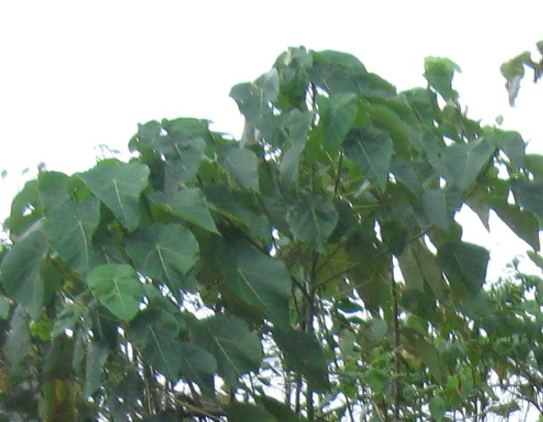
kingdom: Plantae
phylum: Tracheophyta
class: Magnoliopsida
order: Malpighiales
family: Euphorbiaceae
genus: Macaranga
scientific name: Macaranga tanarius
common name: Parasol leaf tree
